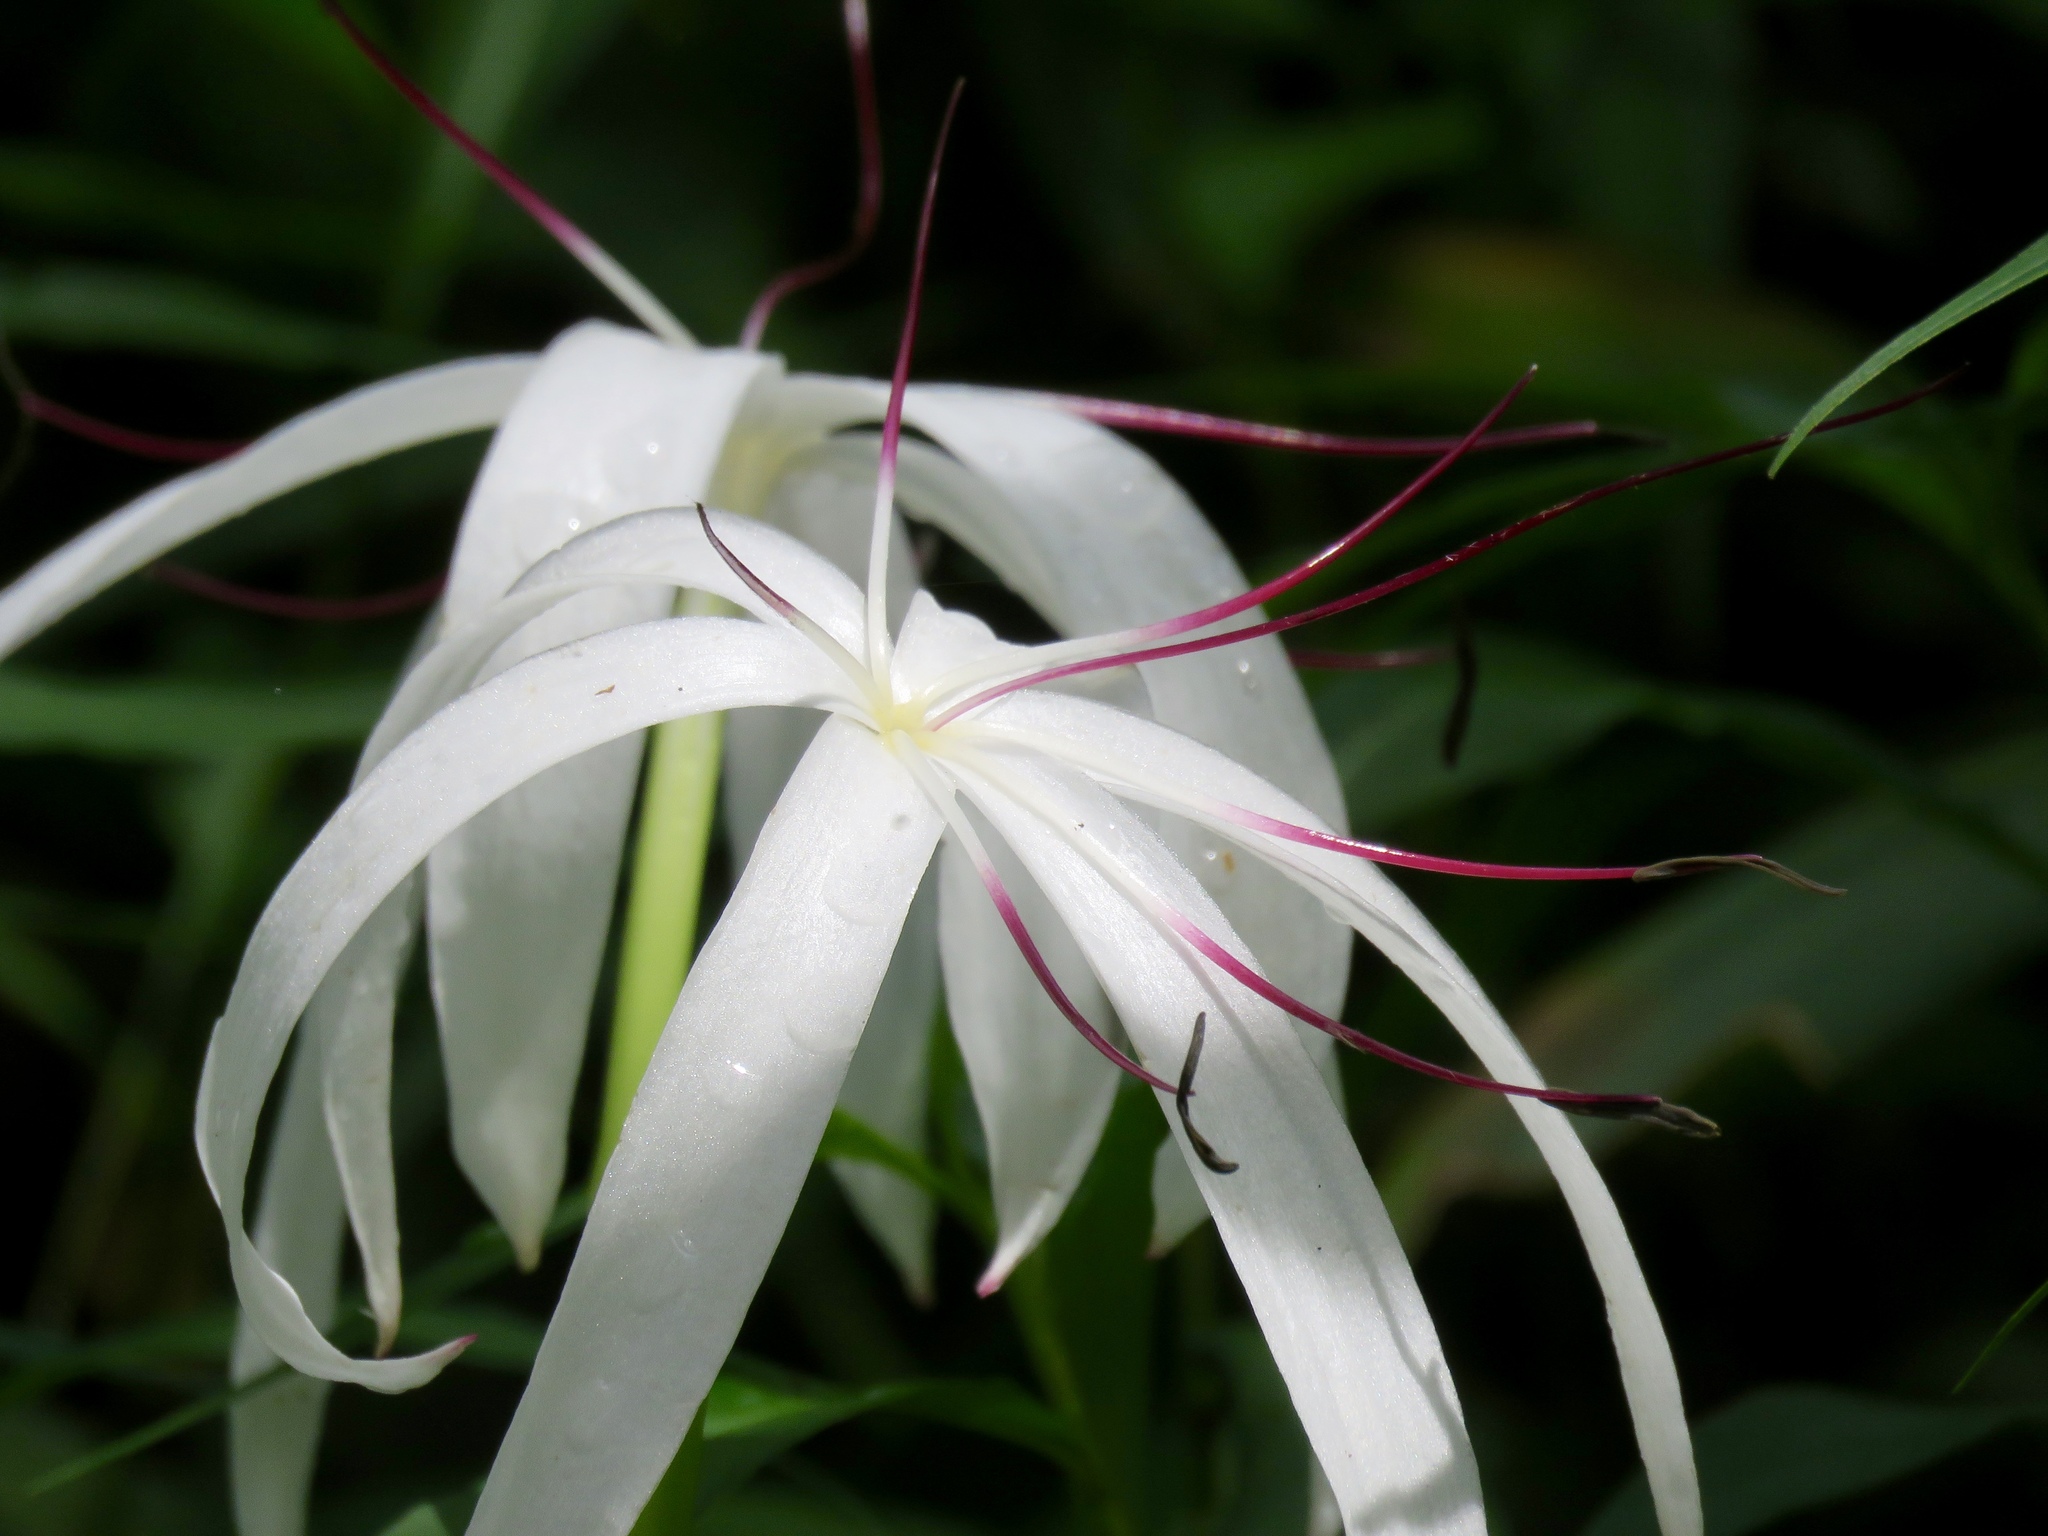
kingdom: Plantae
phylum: Tracheophyta
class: Liliopsida
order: Asparagales
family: Amaryllidaceae
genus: Crinum
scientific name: Crinum americanum
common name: Florida swamp-lily
